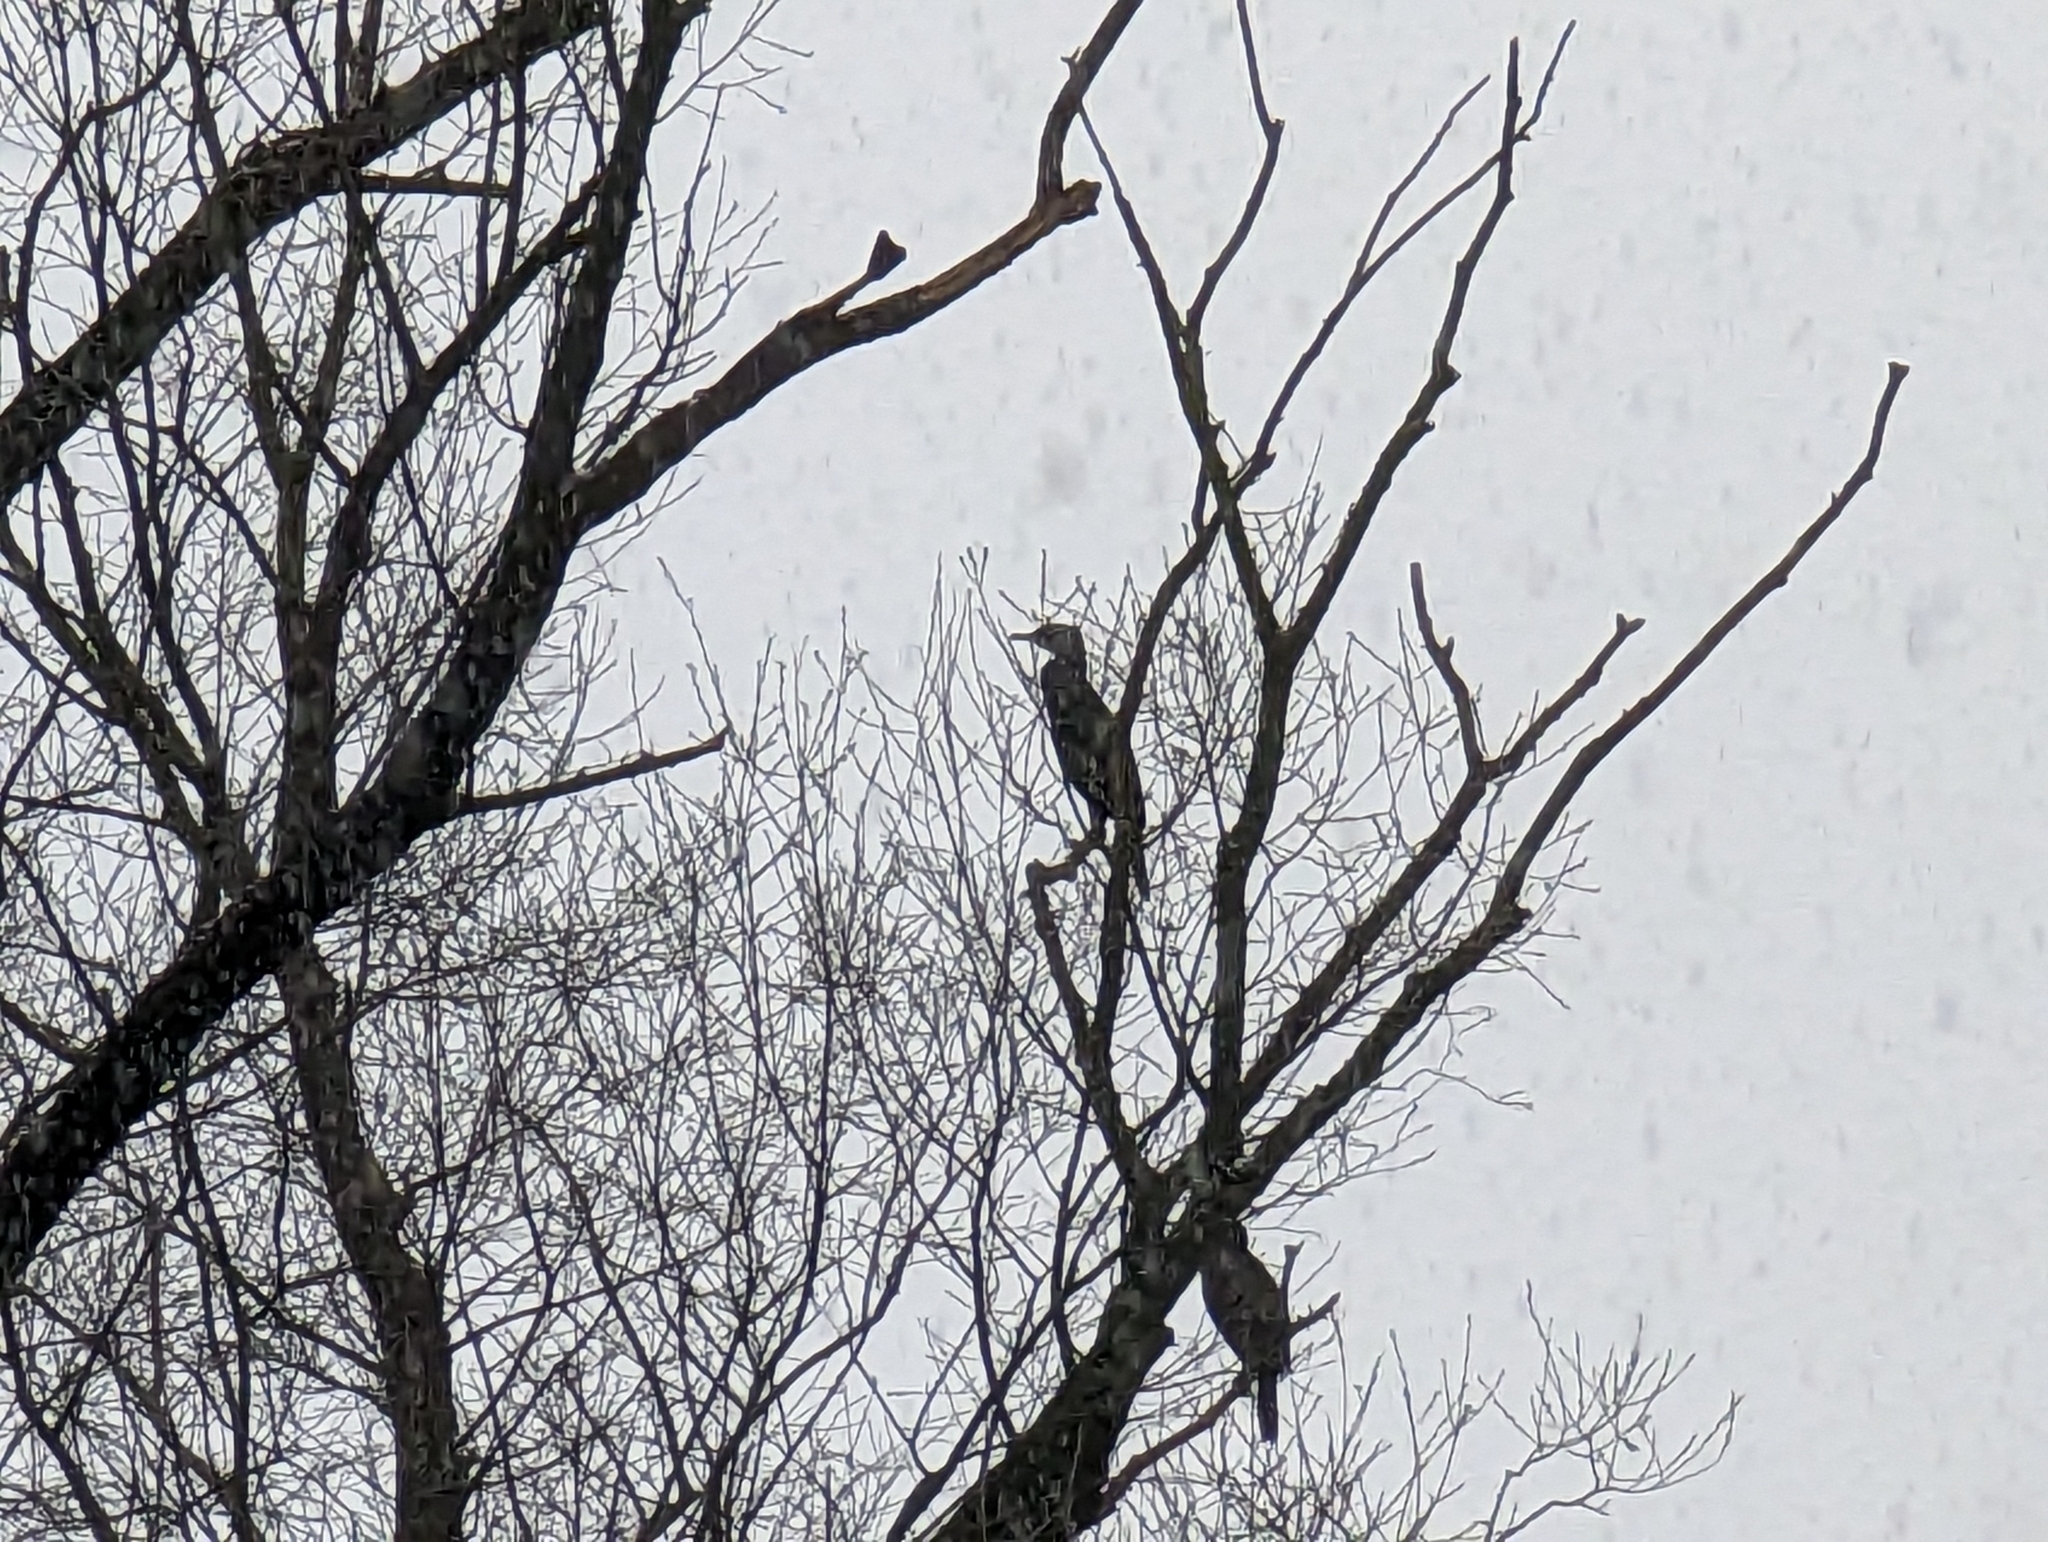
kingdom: Animalia
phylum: Chordata
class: Aves
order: Suliformes
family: Phalacrocoracidae
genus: Phalacrocorax
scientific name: Phalacrocorax carbo
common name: Great cormorant
